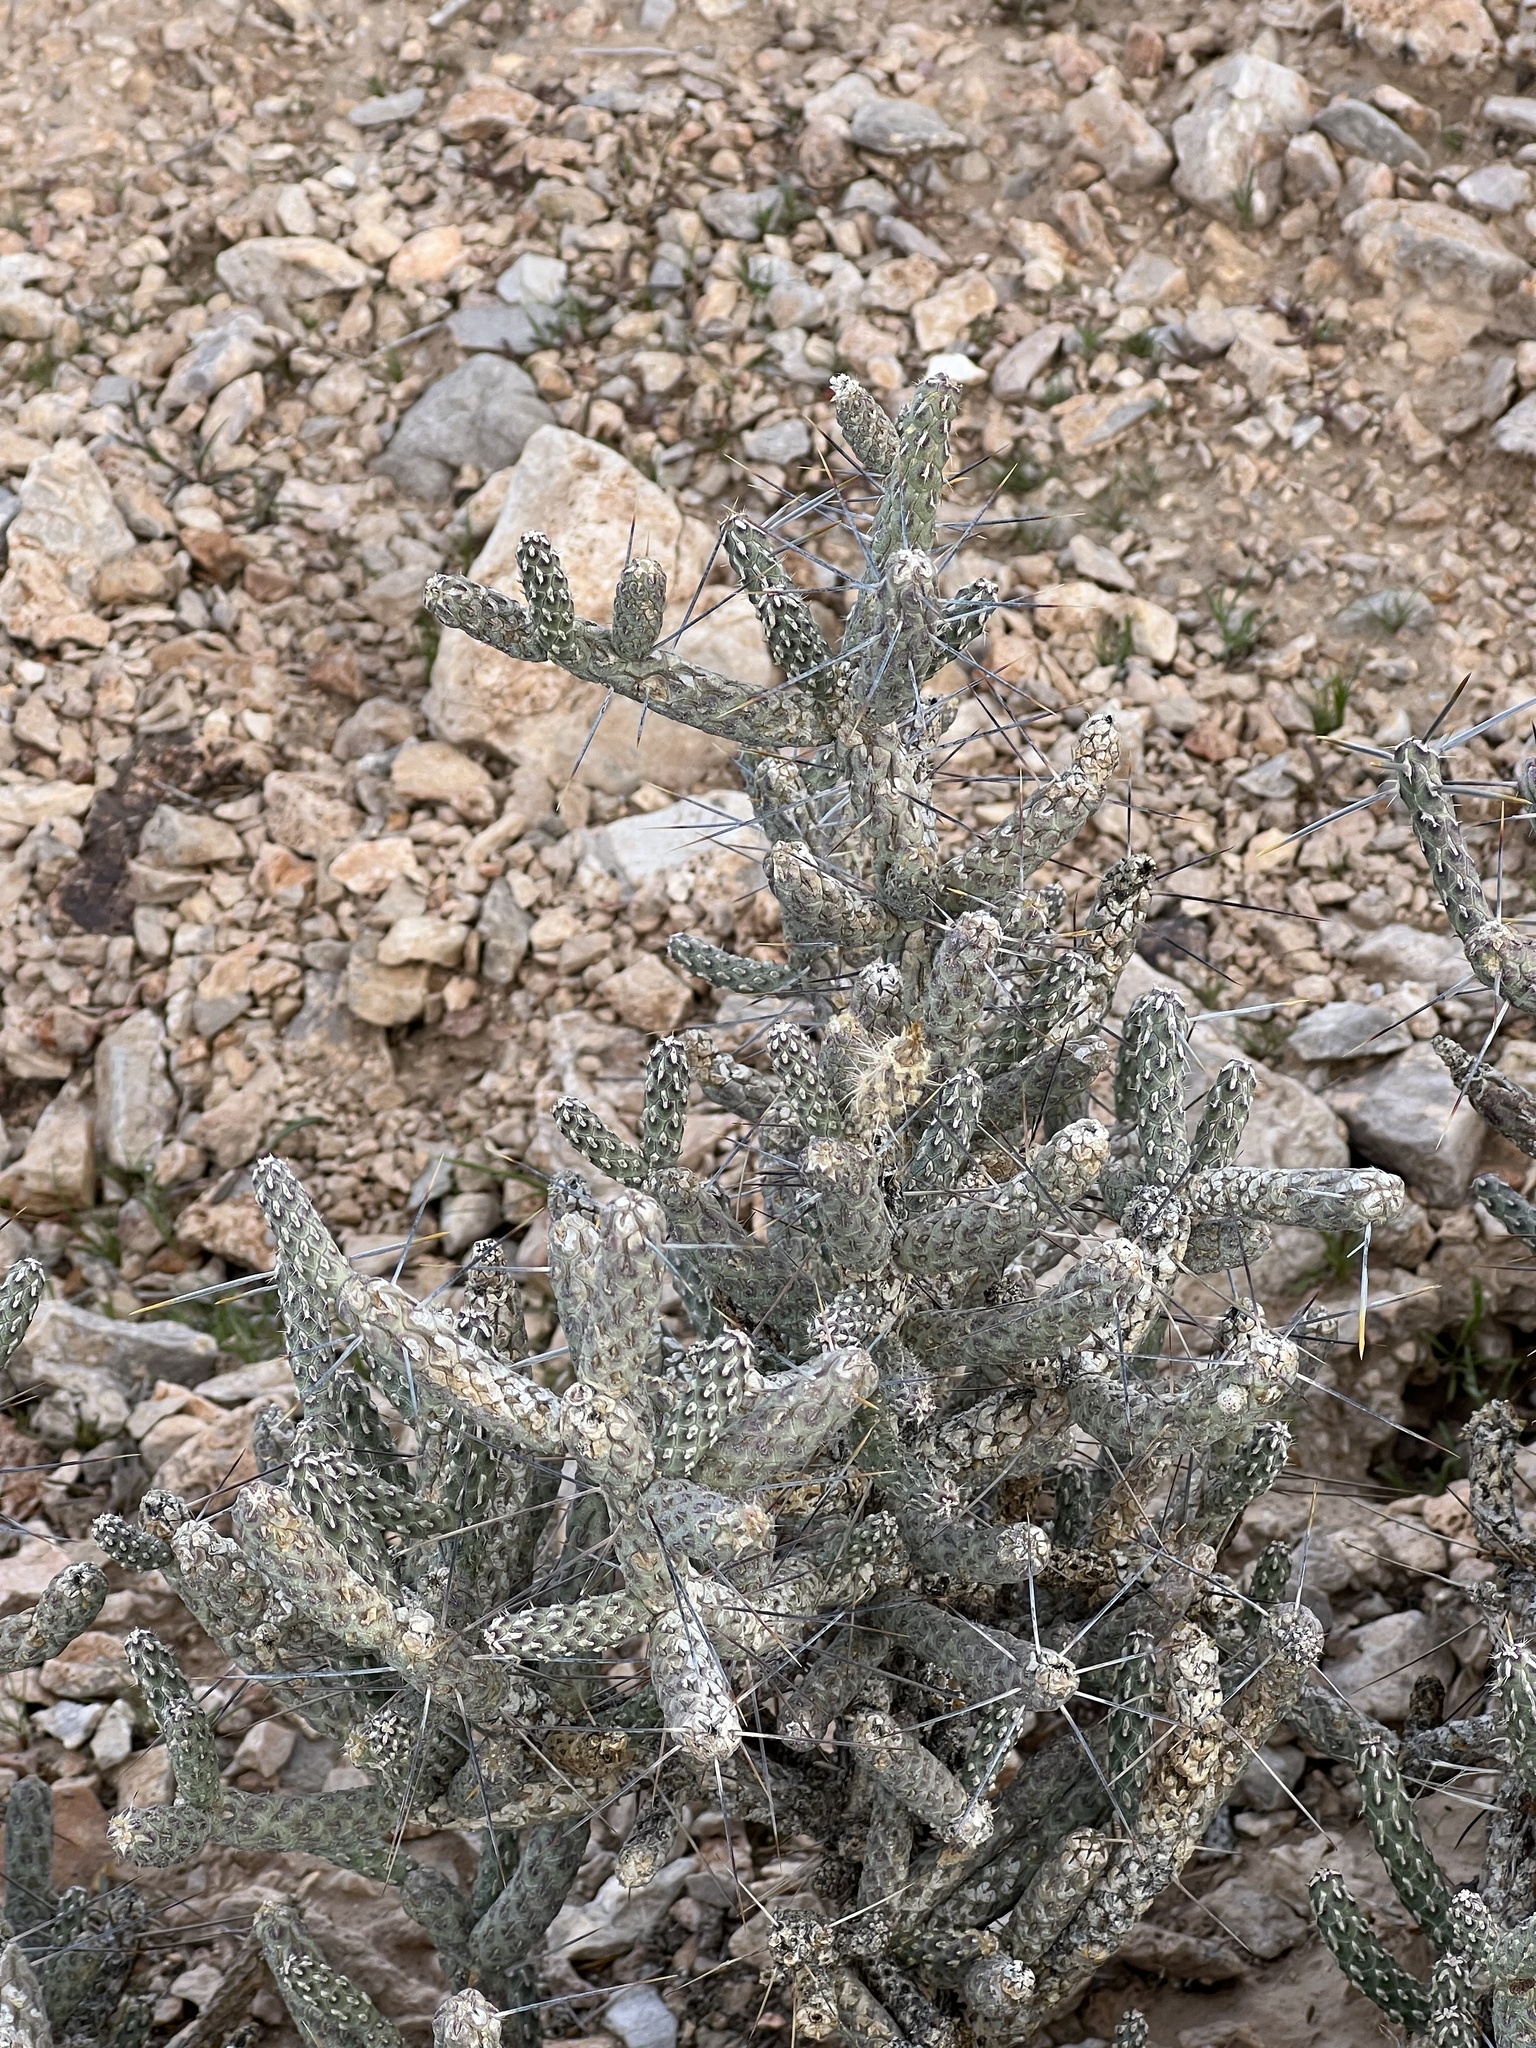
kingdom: Plantae
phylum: Tracheophyta
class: Magnoliopsida
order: Caryophyllales
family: Cactaceae
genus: Cylindropuntia
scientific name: Cylindropuntia ramosissima
